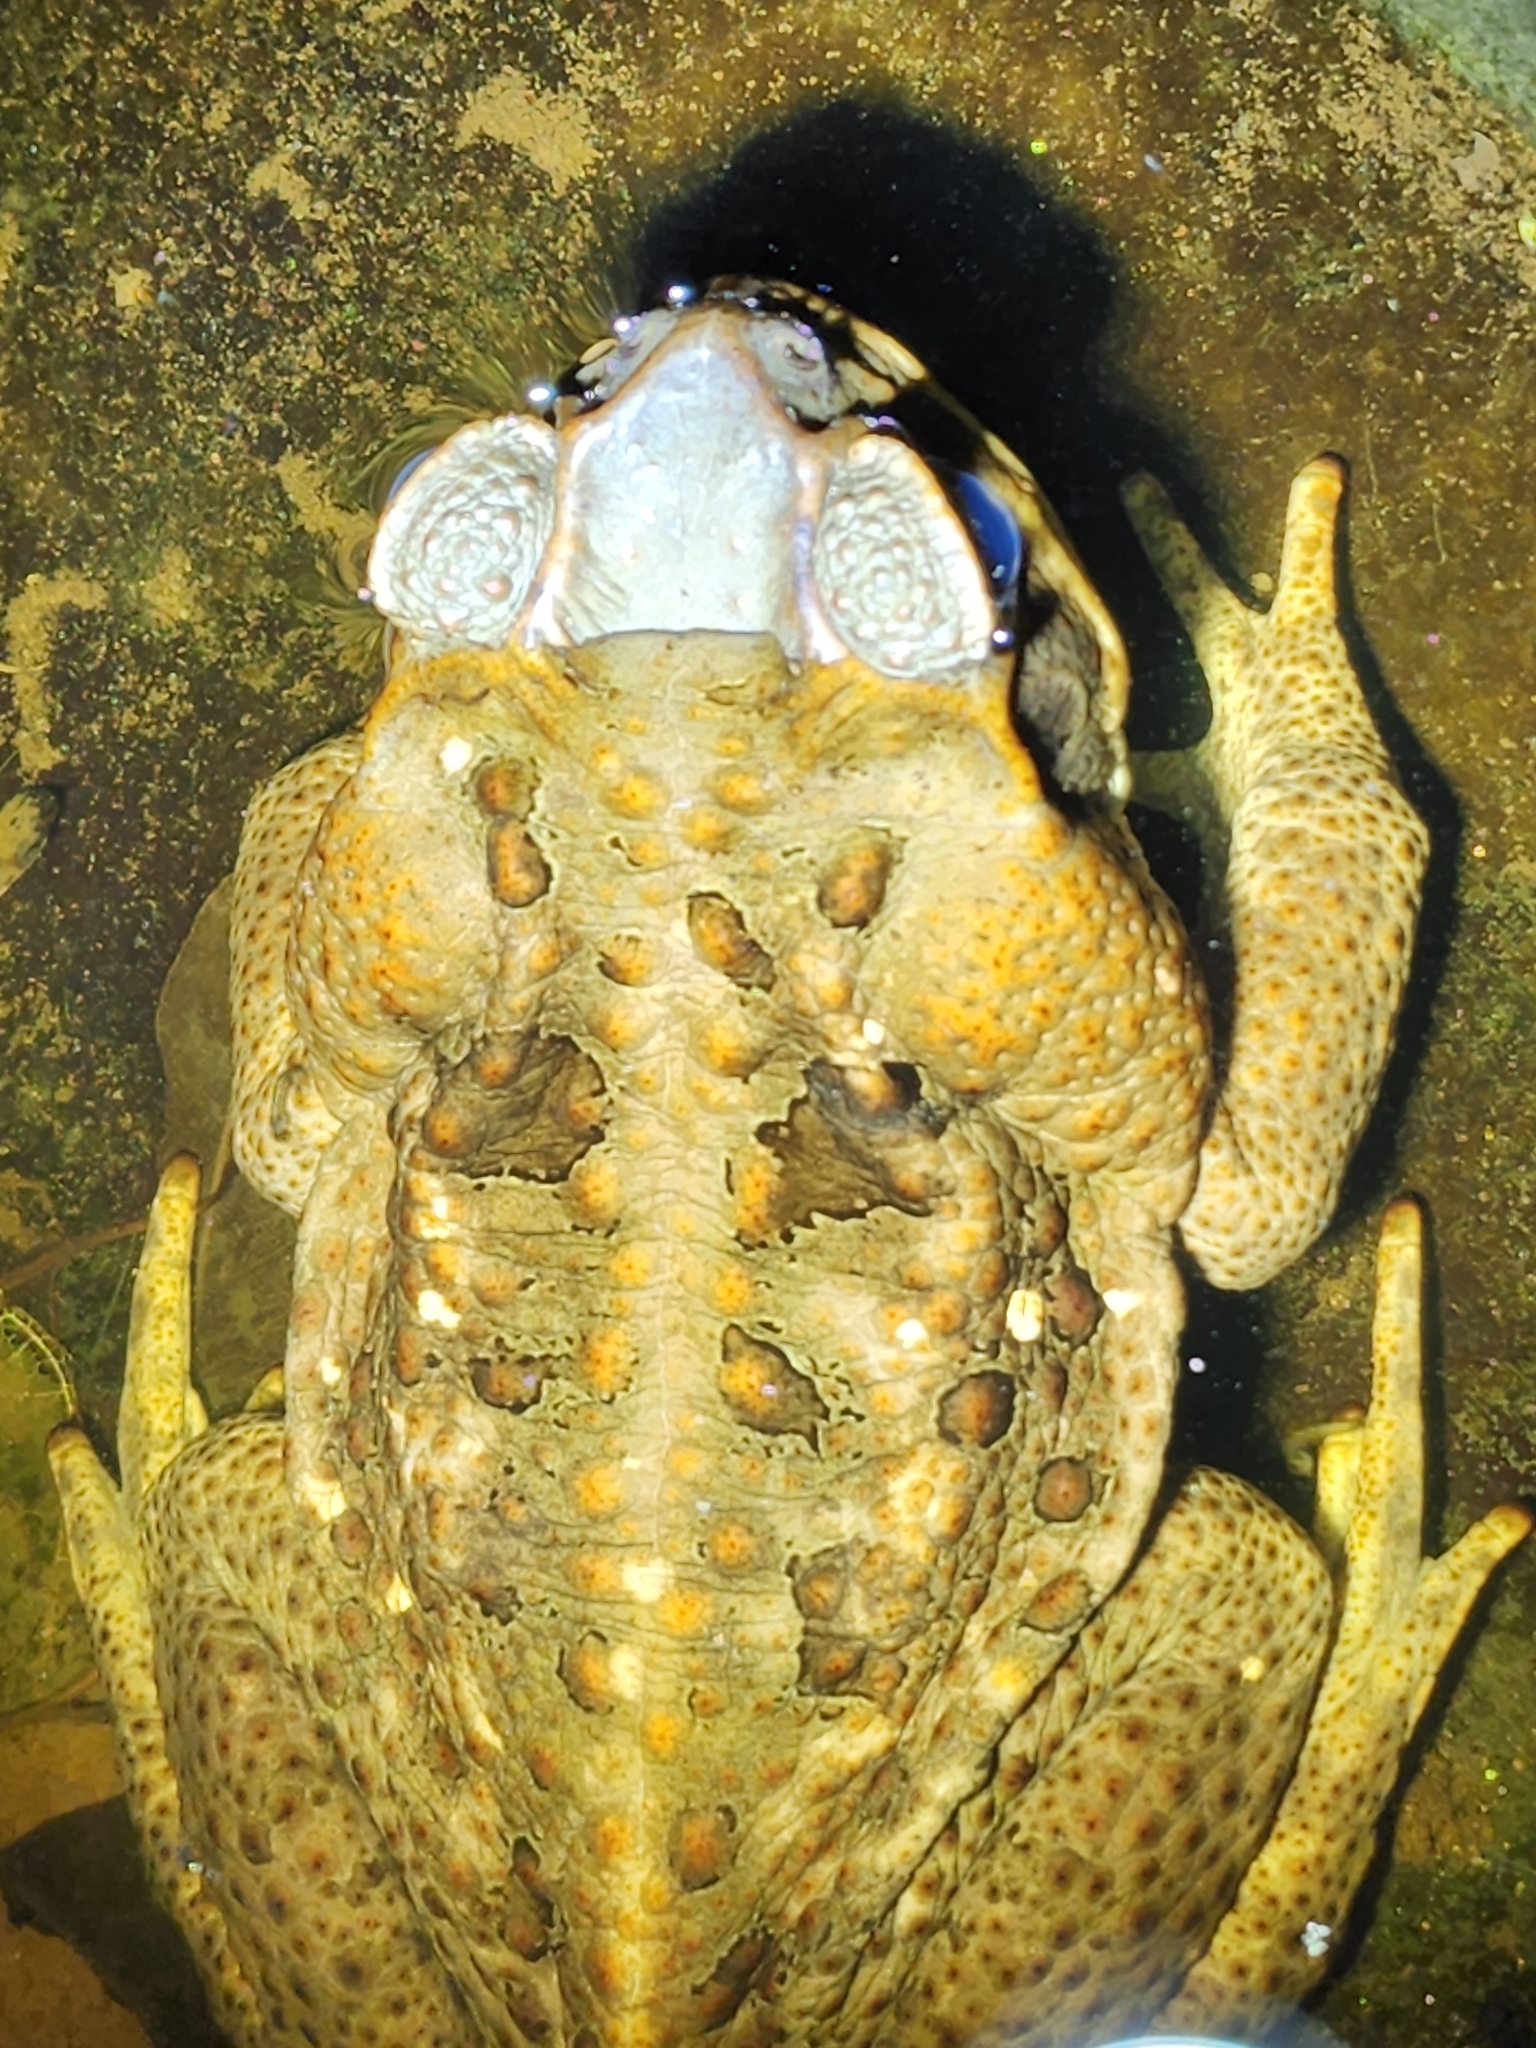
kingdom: Animalia
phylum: Chordata
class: Amphibia
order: Anura
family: Bufonidae
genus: Rhinella
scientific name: Rhinella marina
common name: Cane toad
